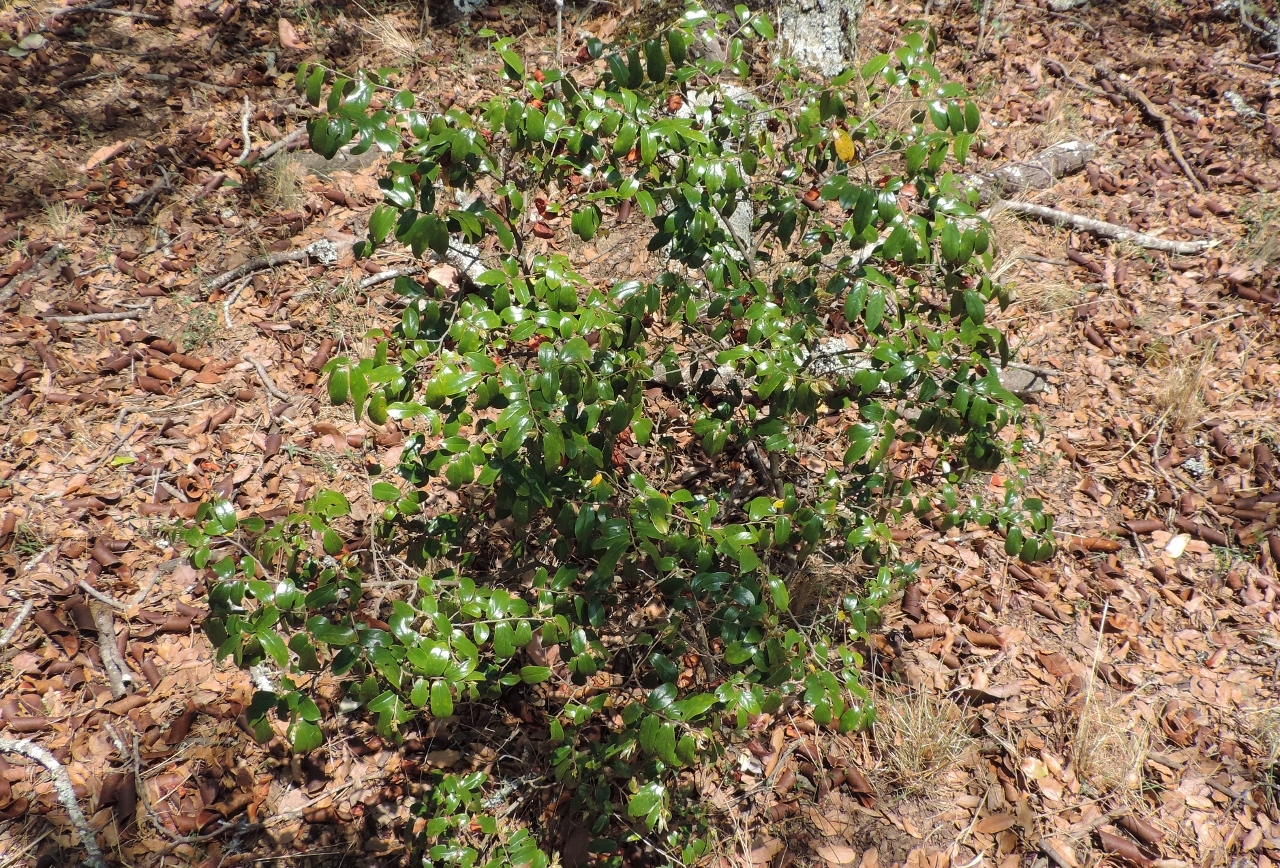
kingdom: Plantae
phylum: Tracheophyta
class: Magnoliopsida
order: Ericales
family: Ebenaceae
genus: Diospyros
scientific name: Diospyros whyteana
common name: Bladder-nut
